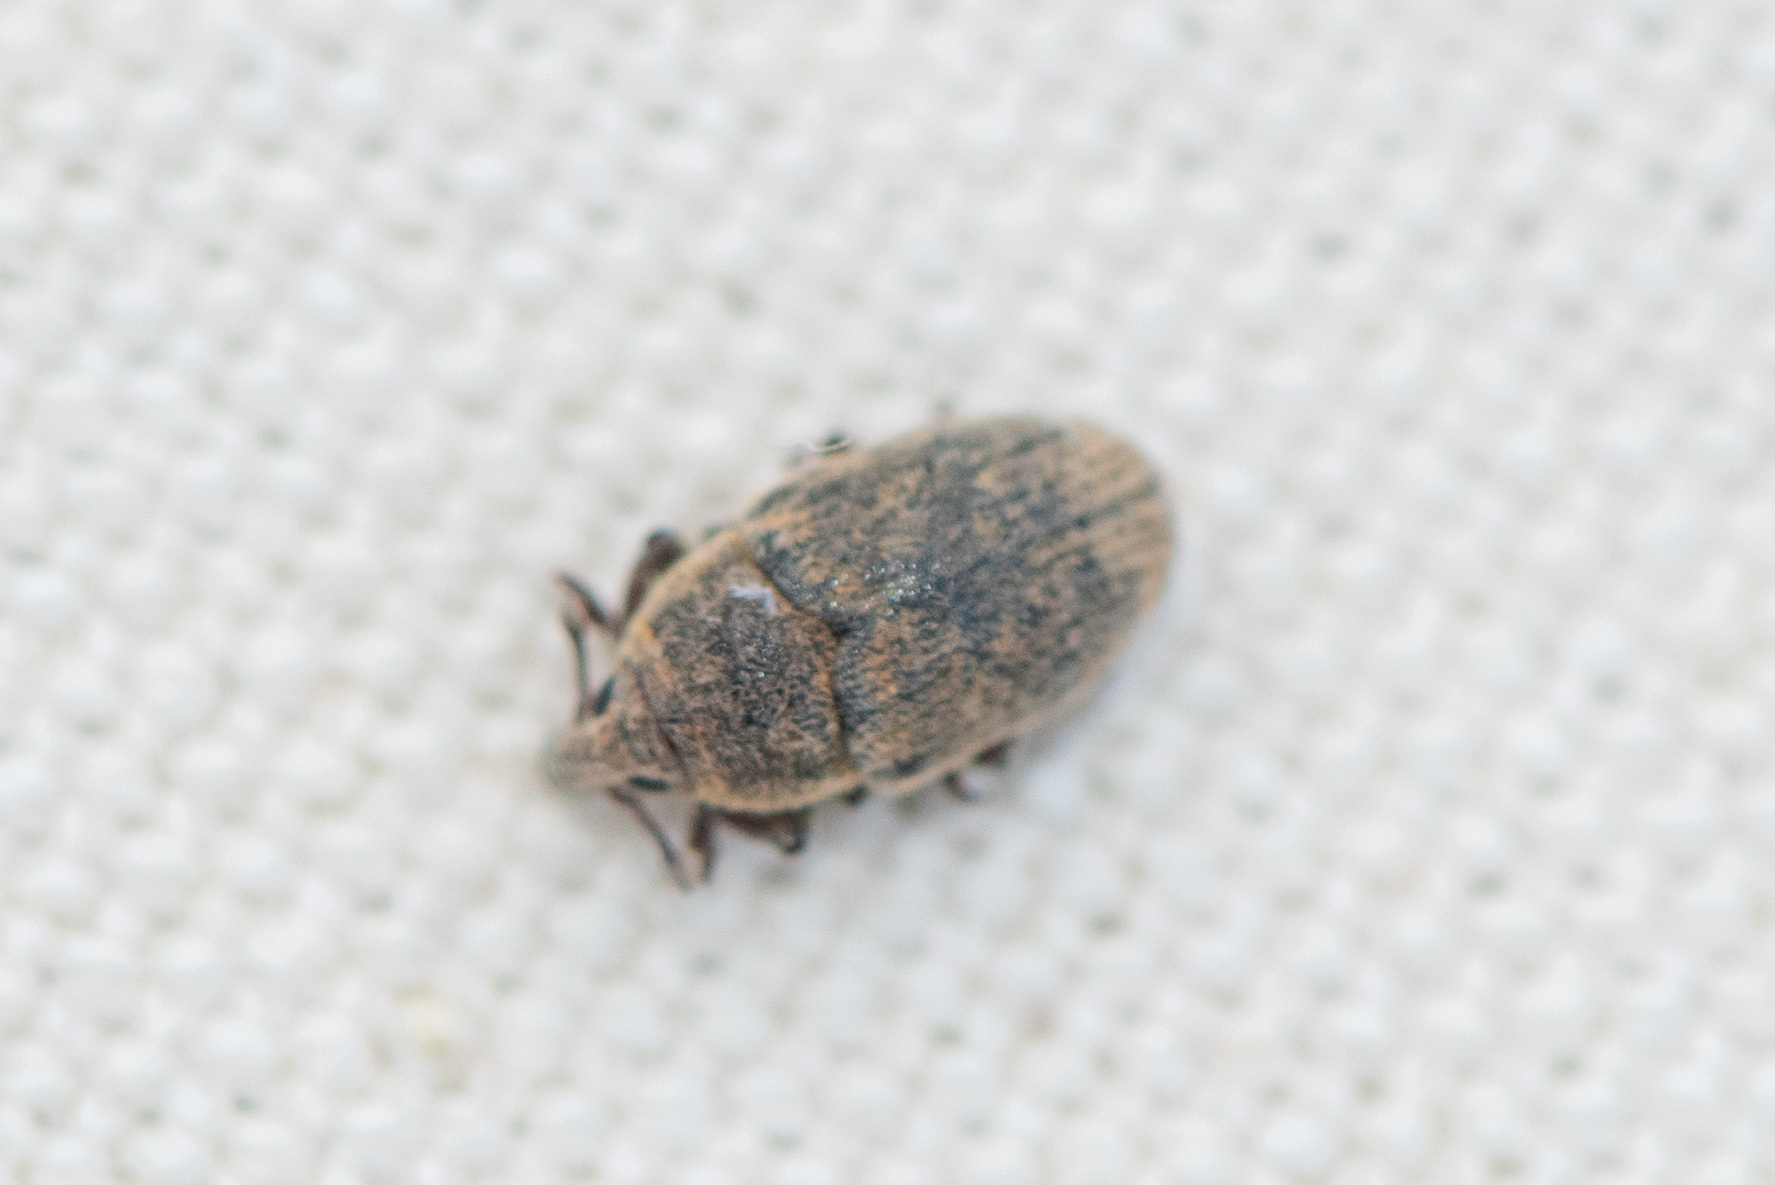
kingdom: Animalia
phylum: Arthropoda
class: Insecta
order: Coleoptera
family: Curculionidae
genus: Larinus
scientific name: Larinus minutus
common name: Weevil
